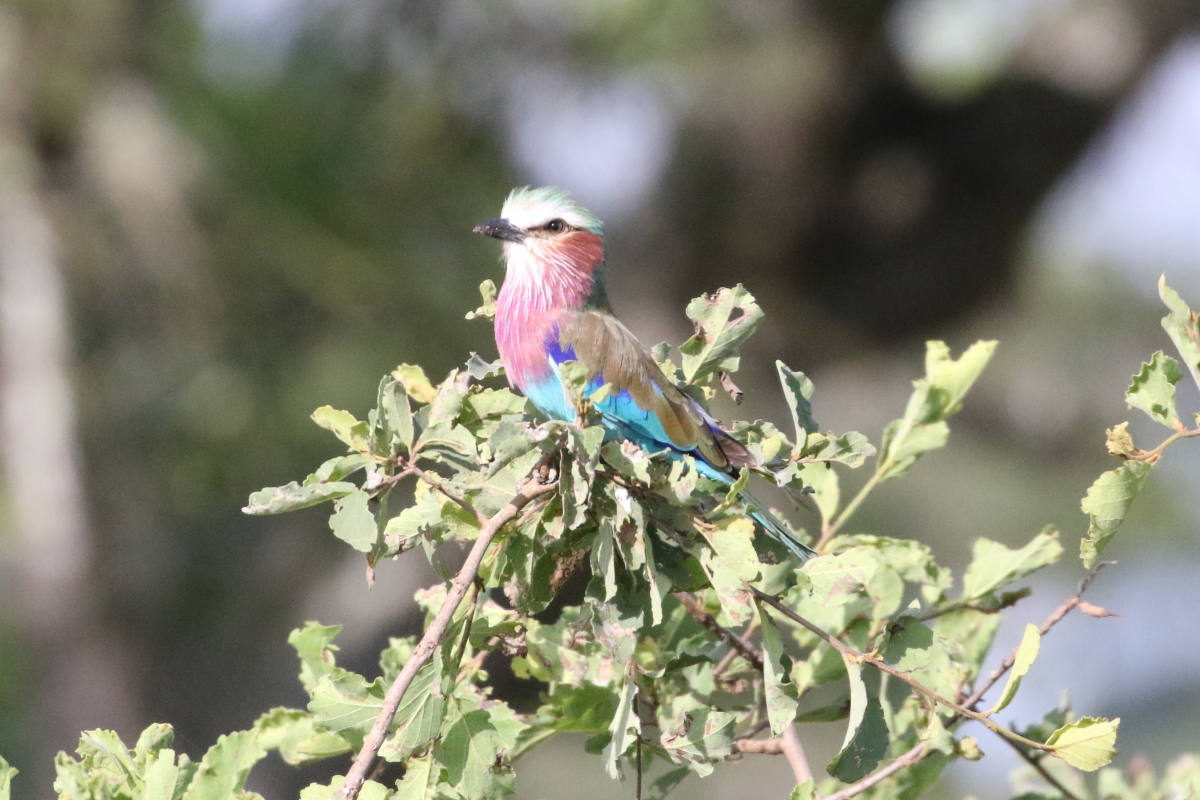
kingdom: Animalia
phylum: Chordata
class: Aves
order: Coraciiformes
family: Coraciidae
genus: Coracias
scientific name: Coracias caudatus
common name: Lilac-breasted roller
